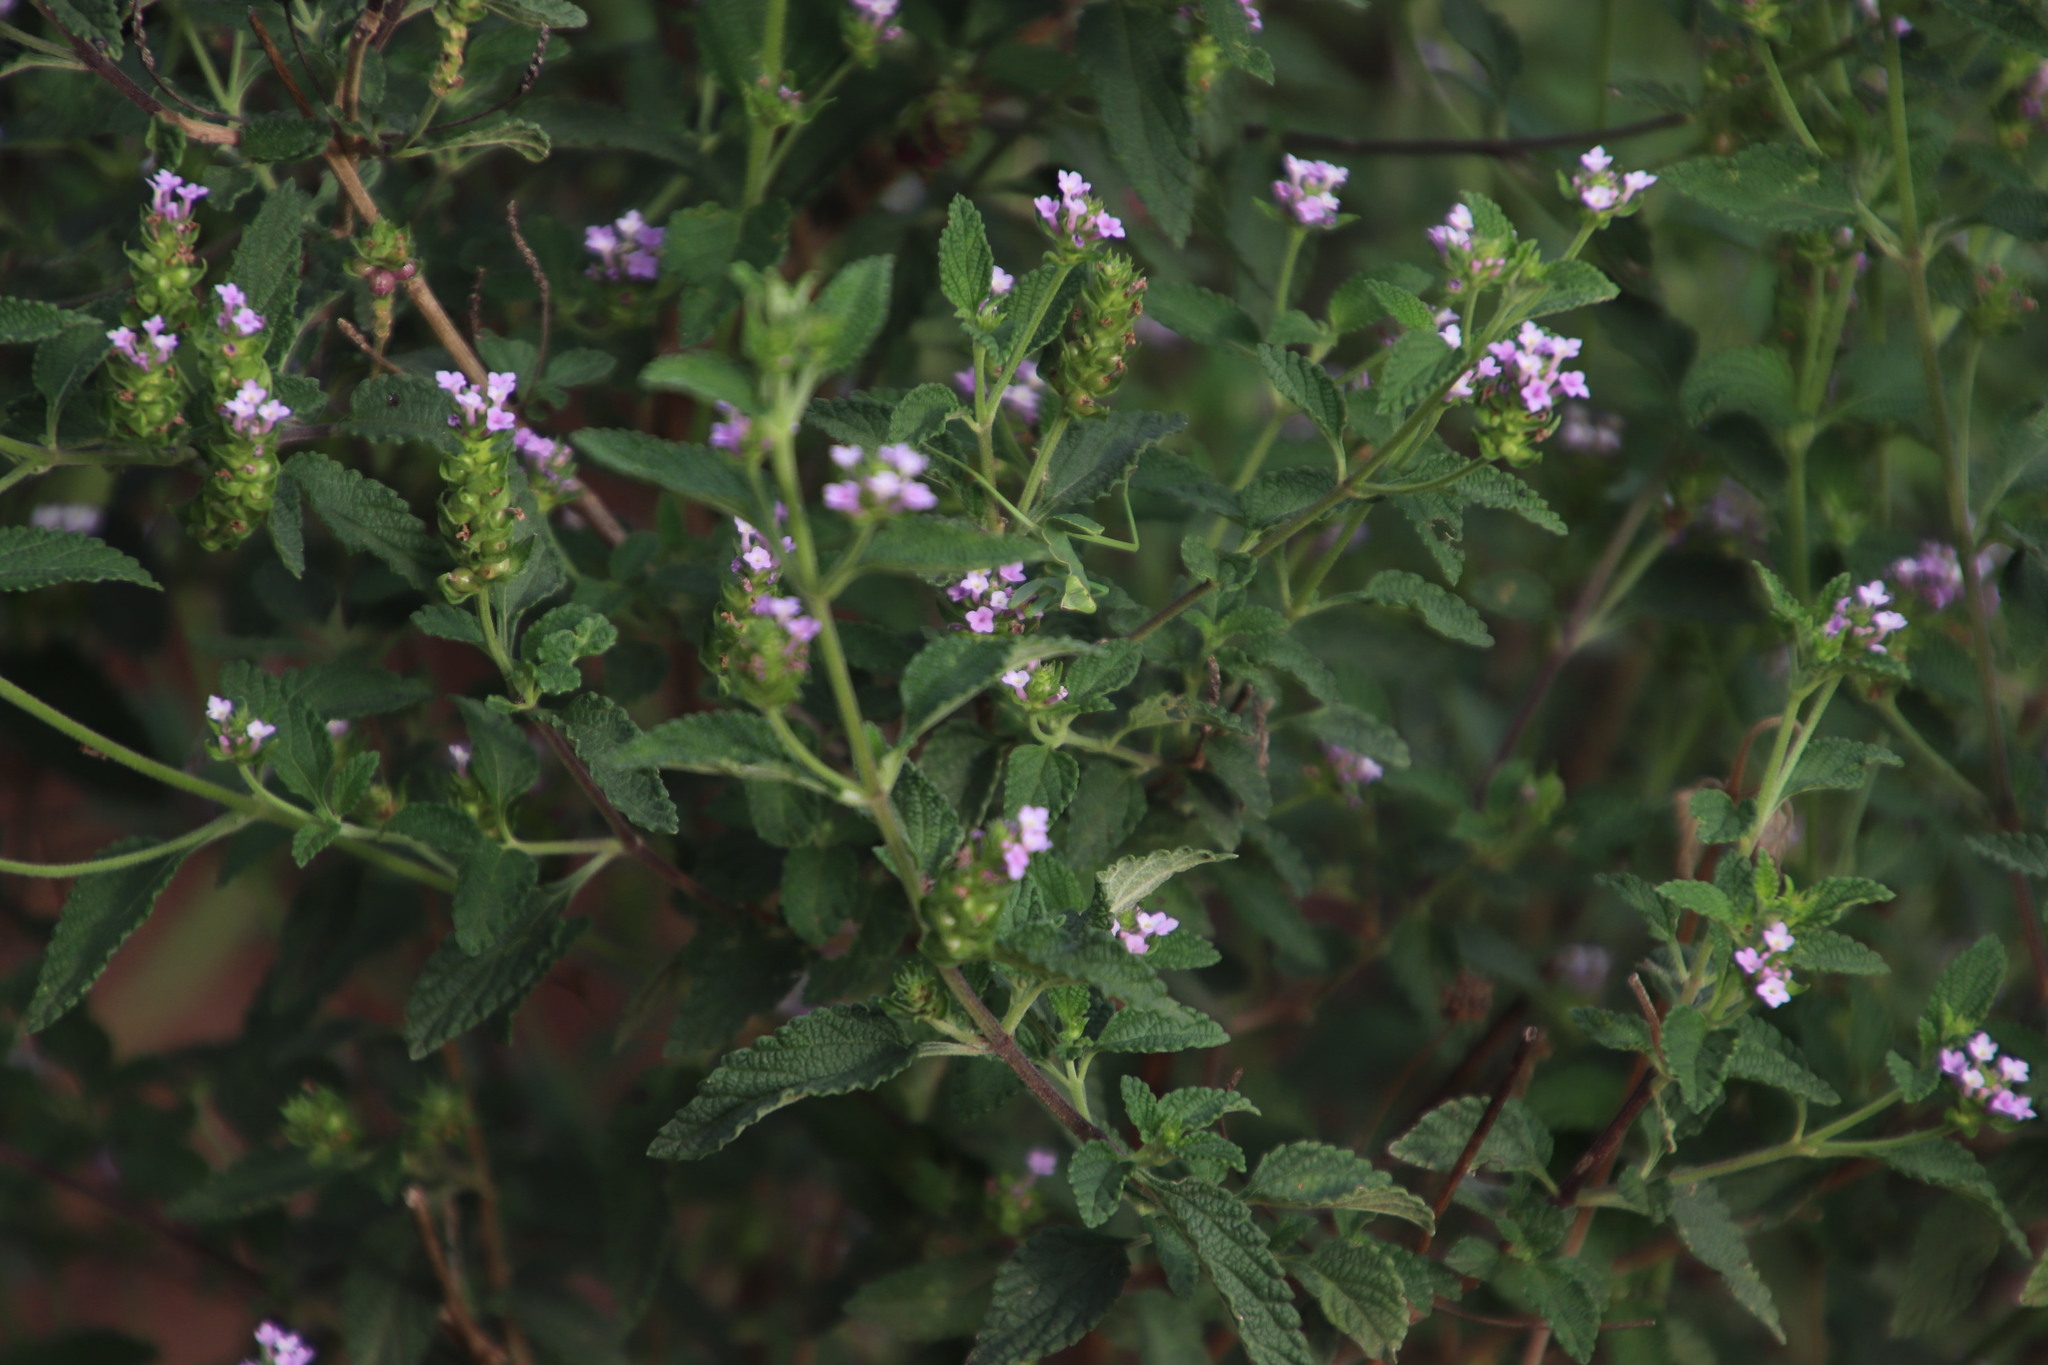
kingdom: Plantae
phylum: Tracheophyta
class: Magnoliopsida
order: Lamiales
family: Verbenaceae
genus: Lantana
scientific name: Lantana rugosa
